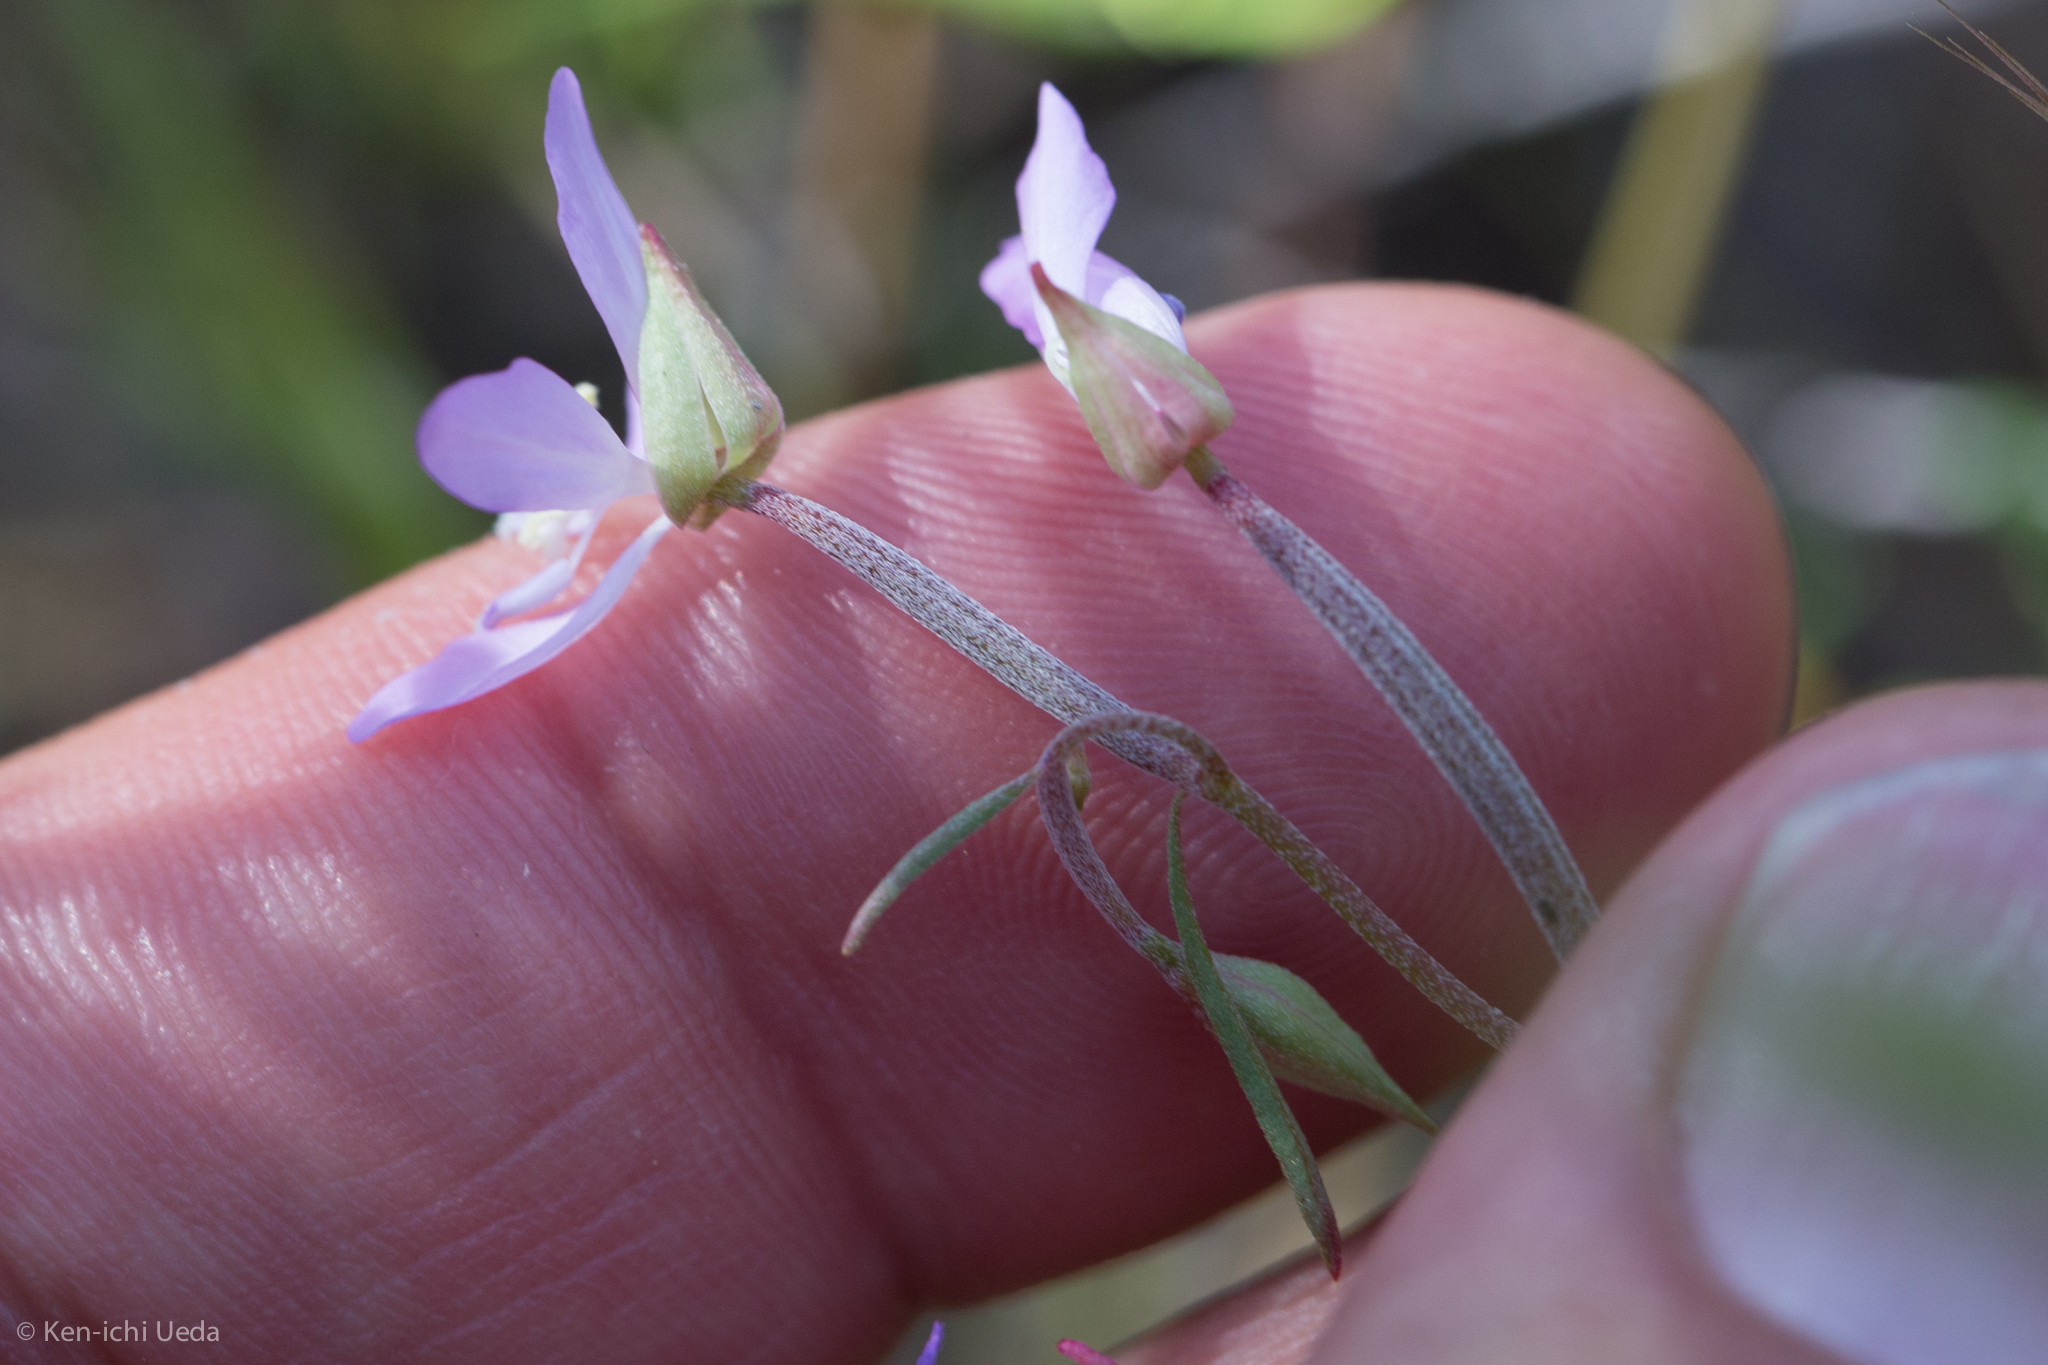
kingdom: Plantae
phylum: Tracheophyta
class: Magnoliopsida
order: Myrtales
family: Onagraceae
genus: Clarkia
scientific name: Clarkia modesta
